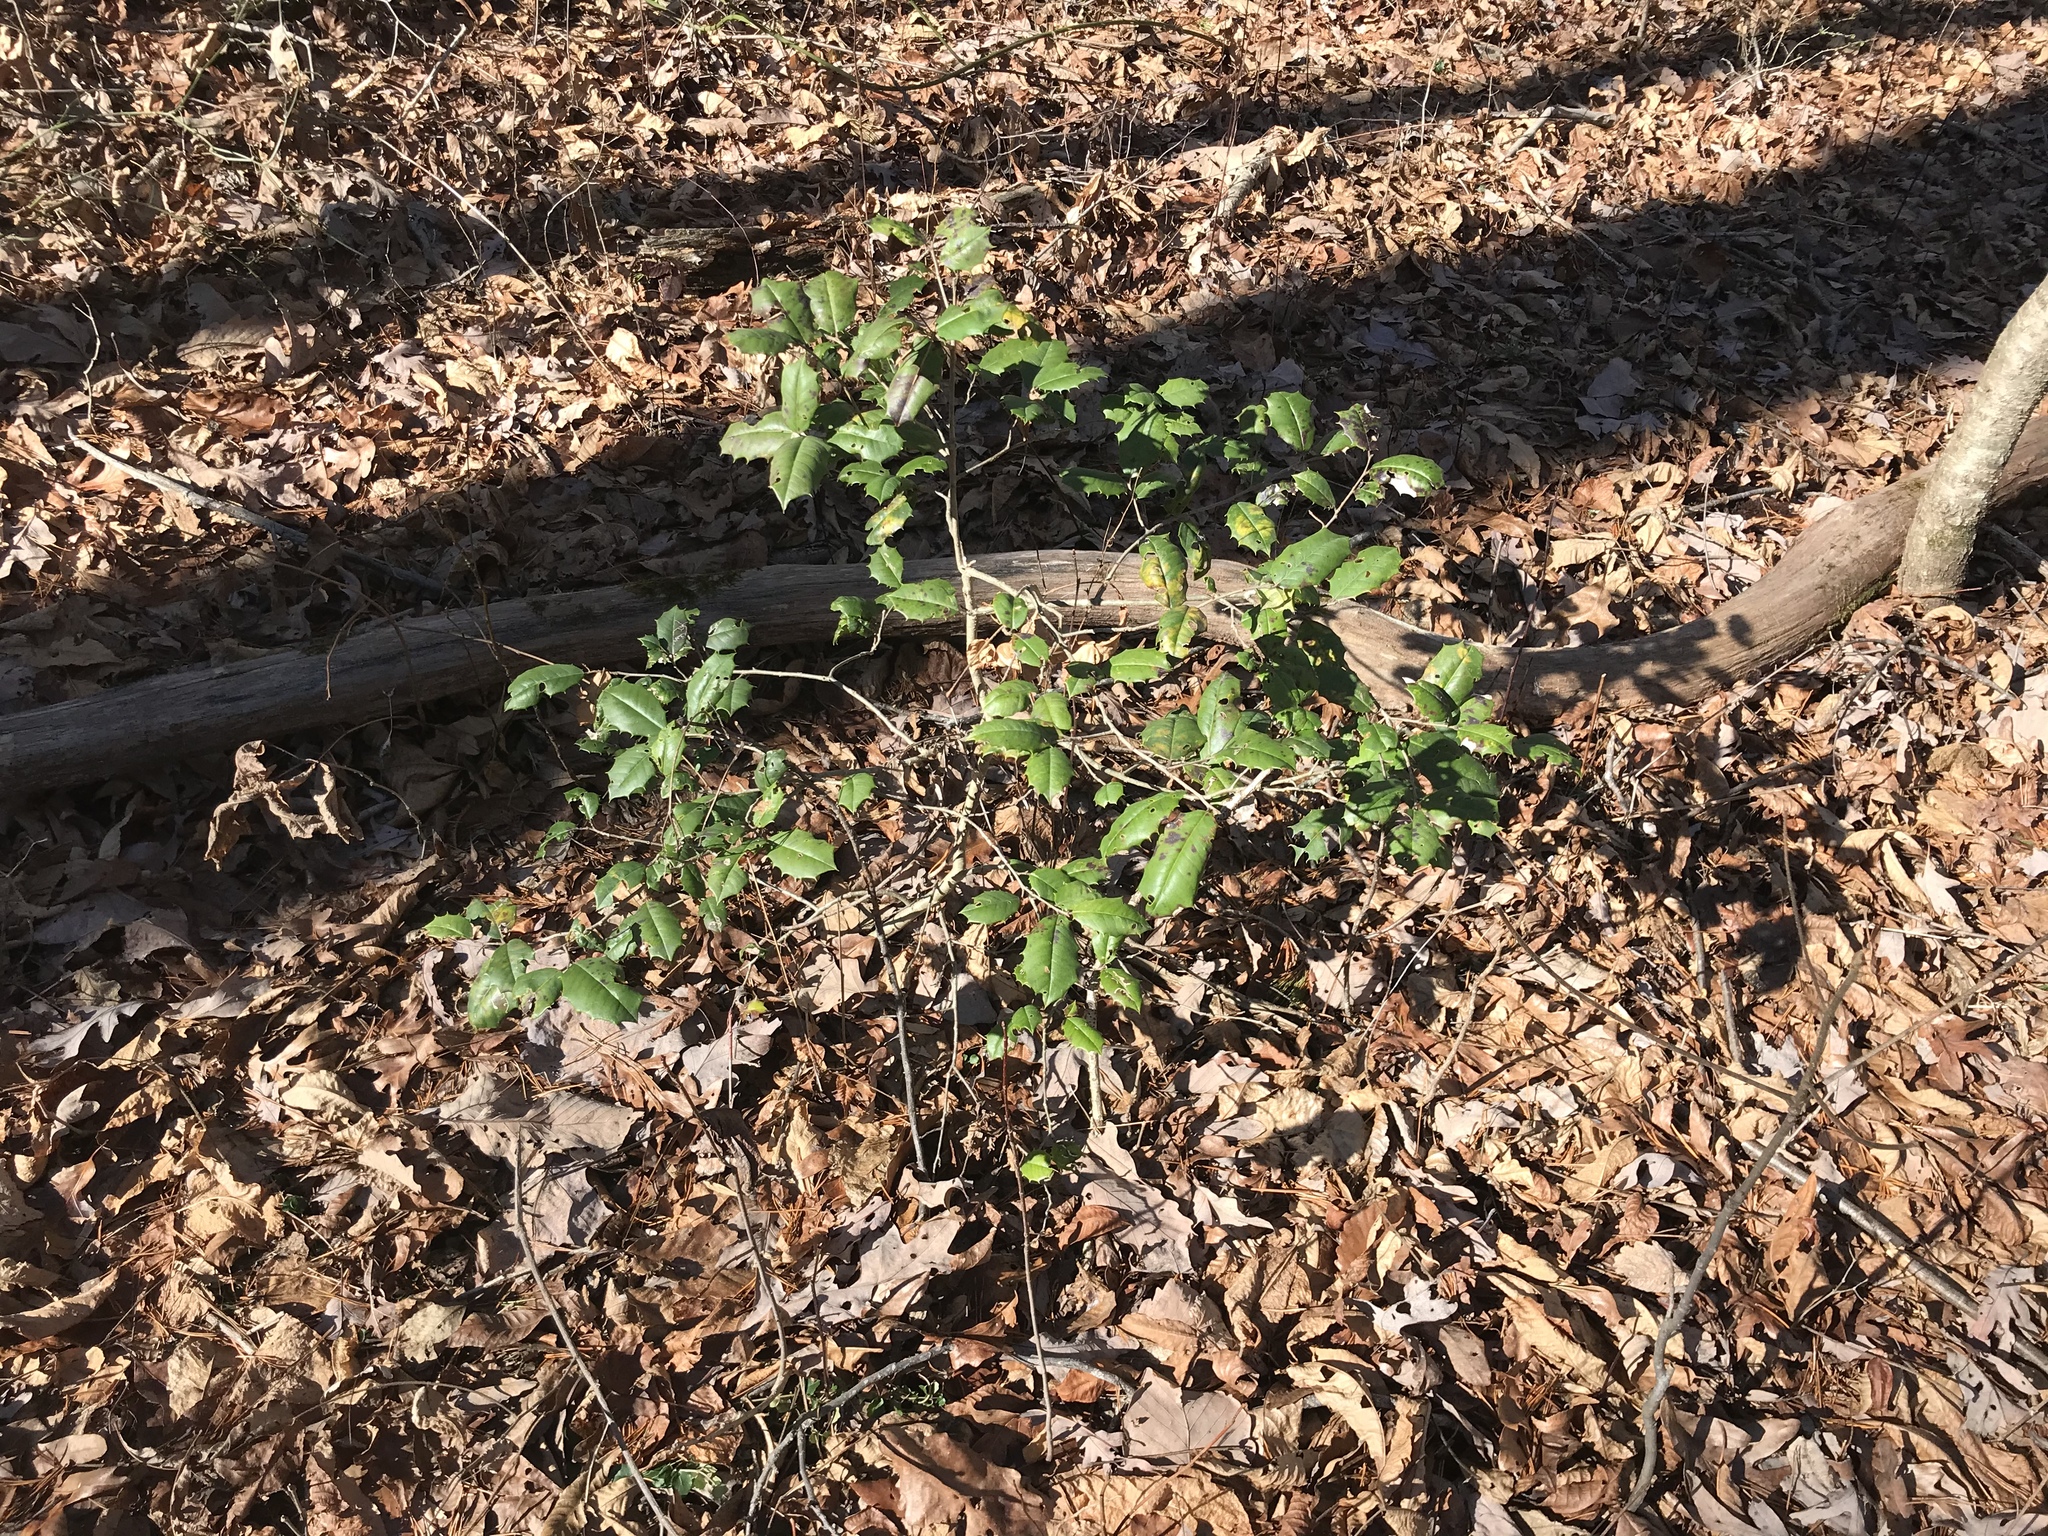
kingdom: Plantae
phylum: Tracheophyta
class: Magnoliopsida
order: Aquifoliales
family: Aquifoliaceae
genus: Ilex
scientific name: Ilex opaca
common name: American holly
